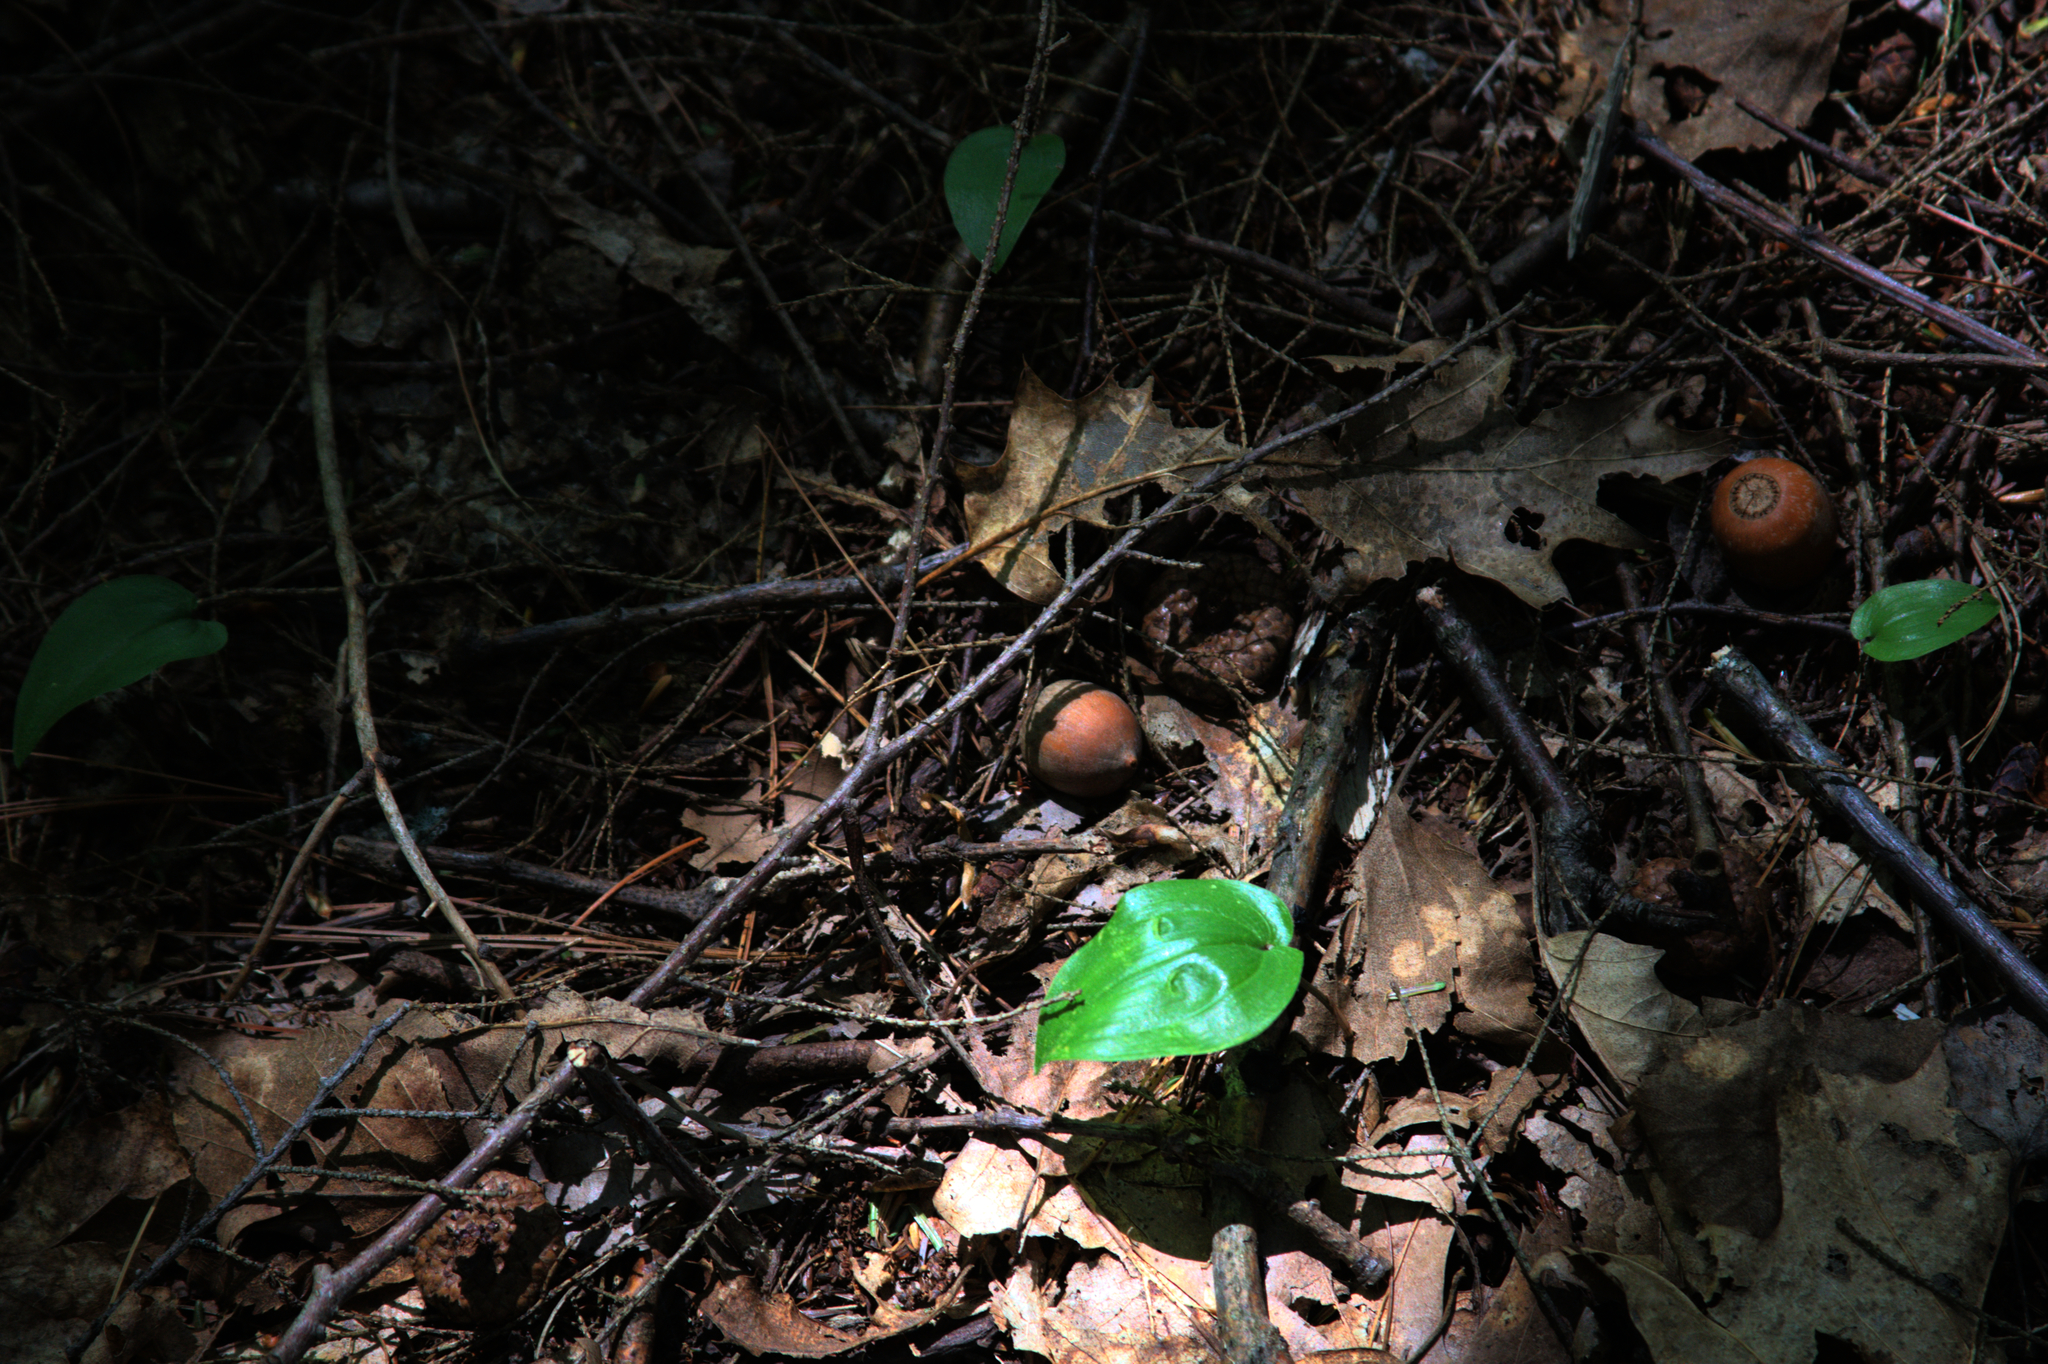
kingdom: Plantae
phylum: Tracheophyta
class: Liliopsida
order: Asparagales
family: Asparagaceae
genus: Maianthemum
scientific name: Maianthemum canadense
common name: False lily-of-the-valley
